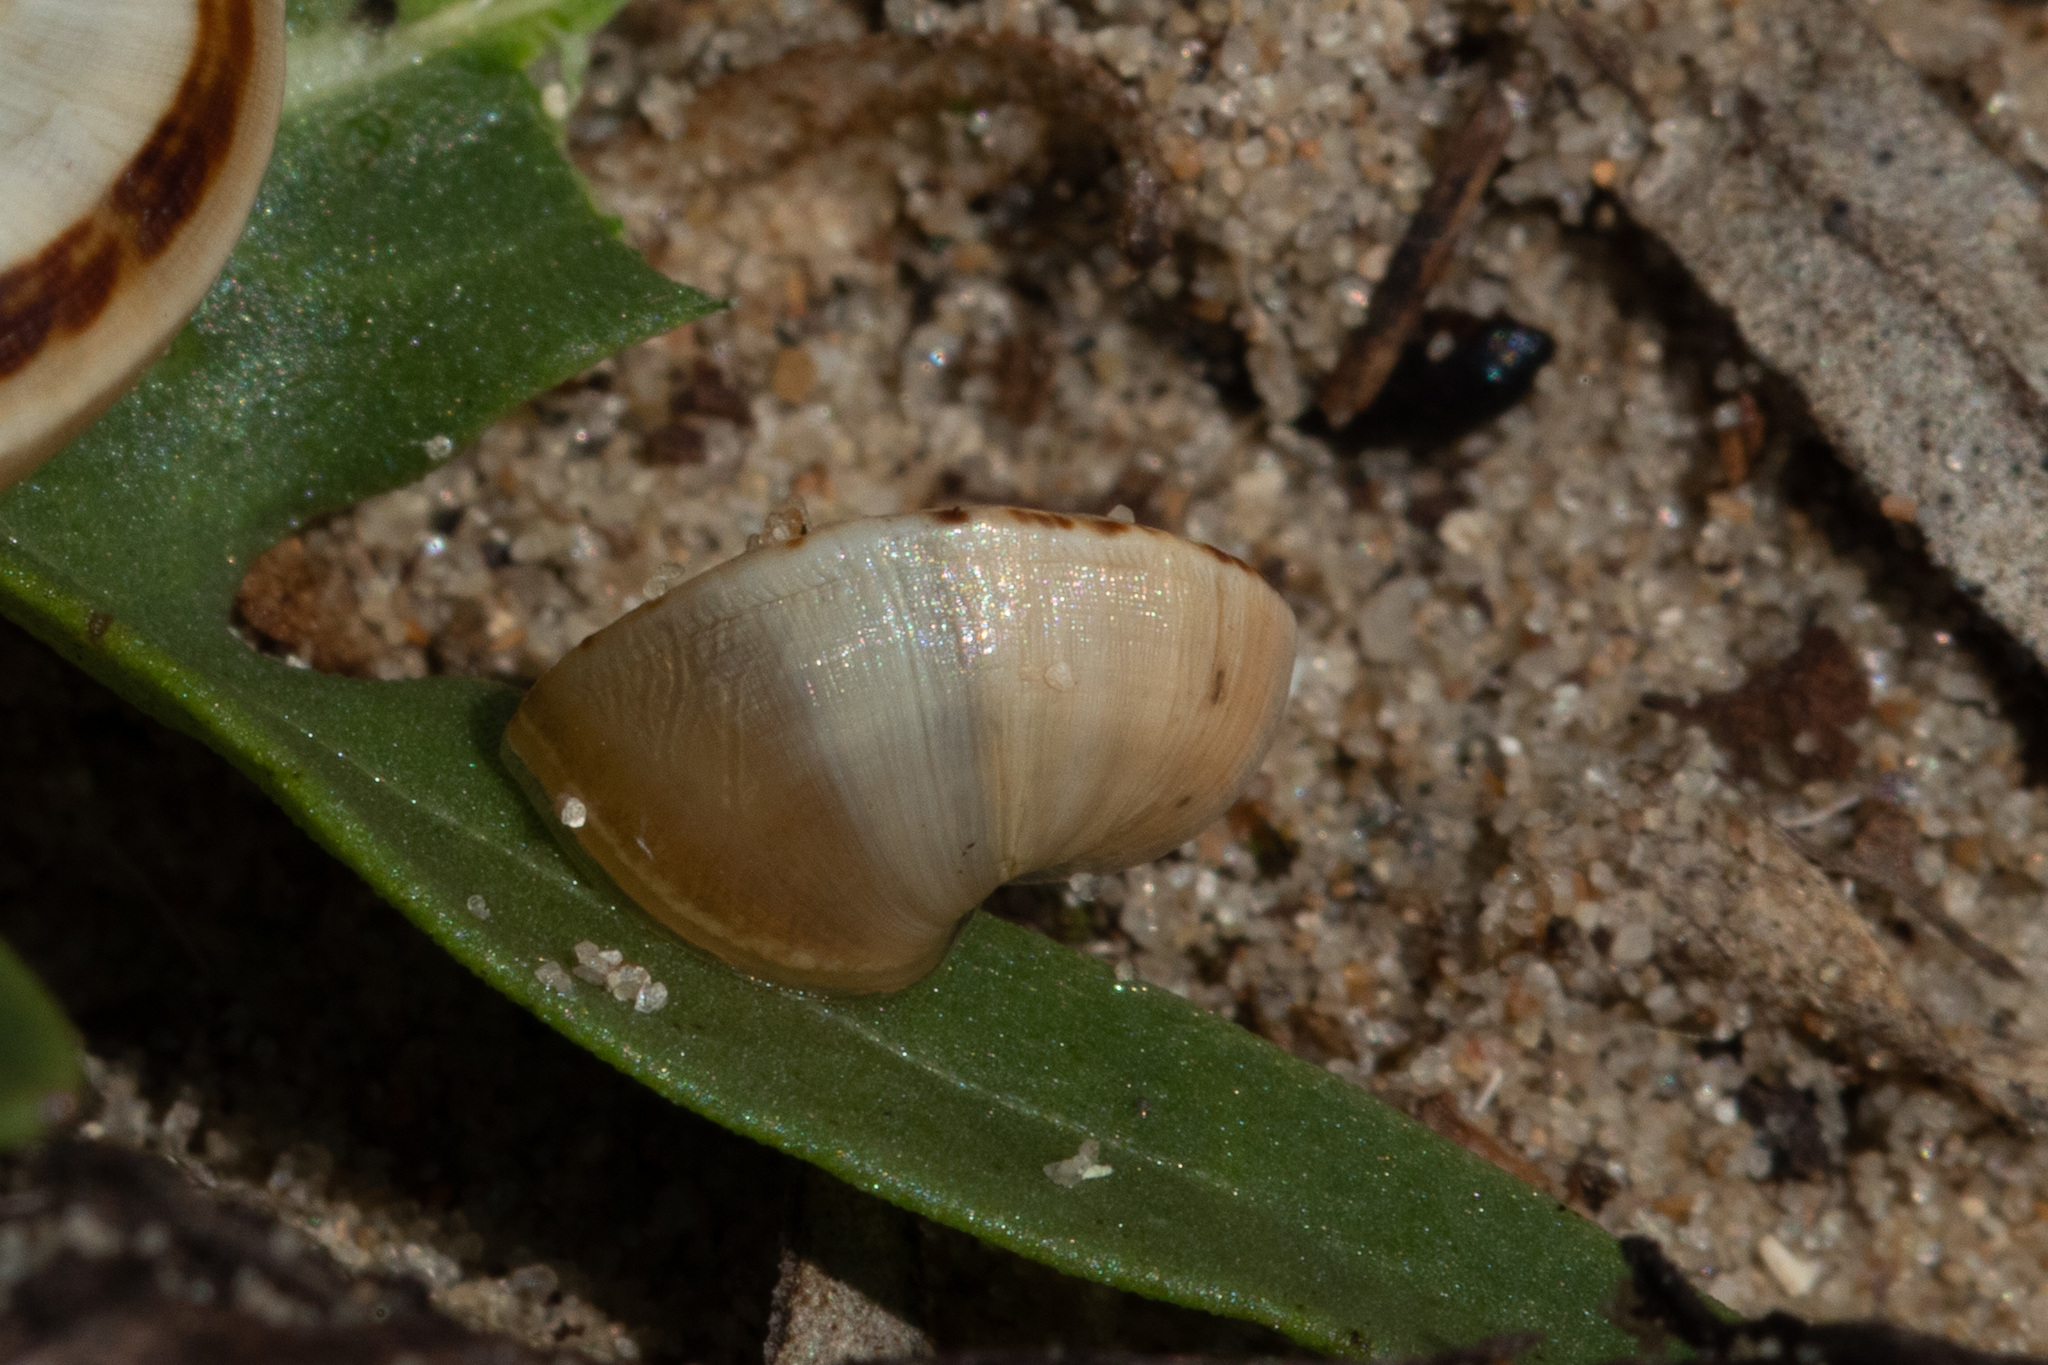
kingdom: Animalia
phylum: Mollusca
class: Gastropoda
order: Stylommatophora
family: Helicidae
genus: Theba
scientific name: Theba pisana
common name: White snail
